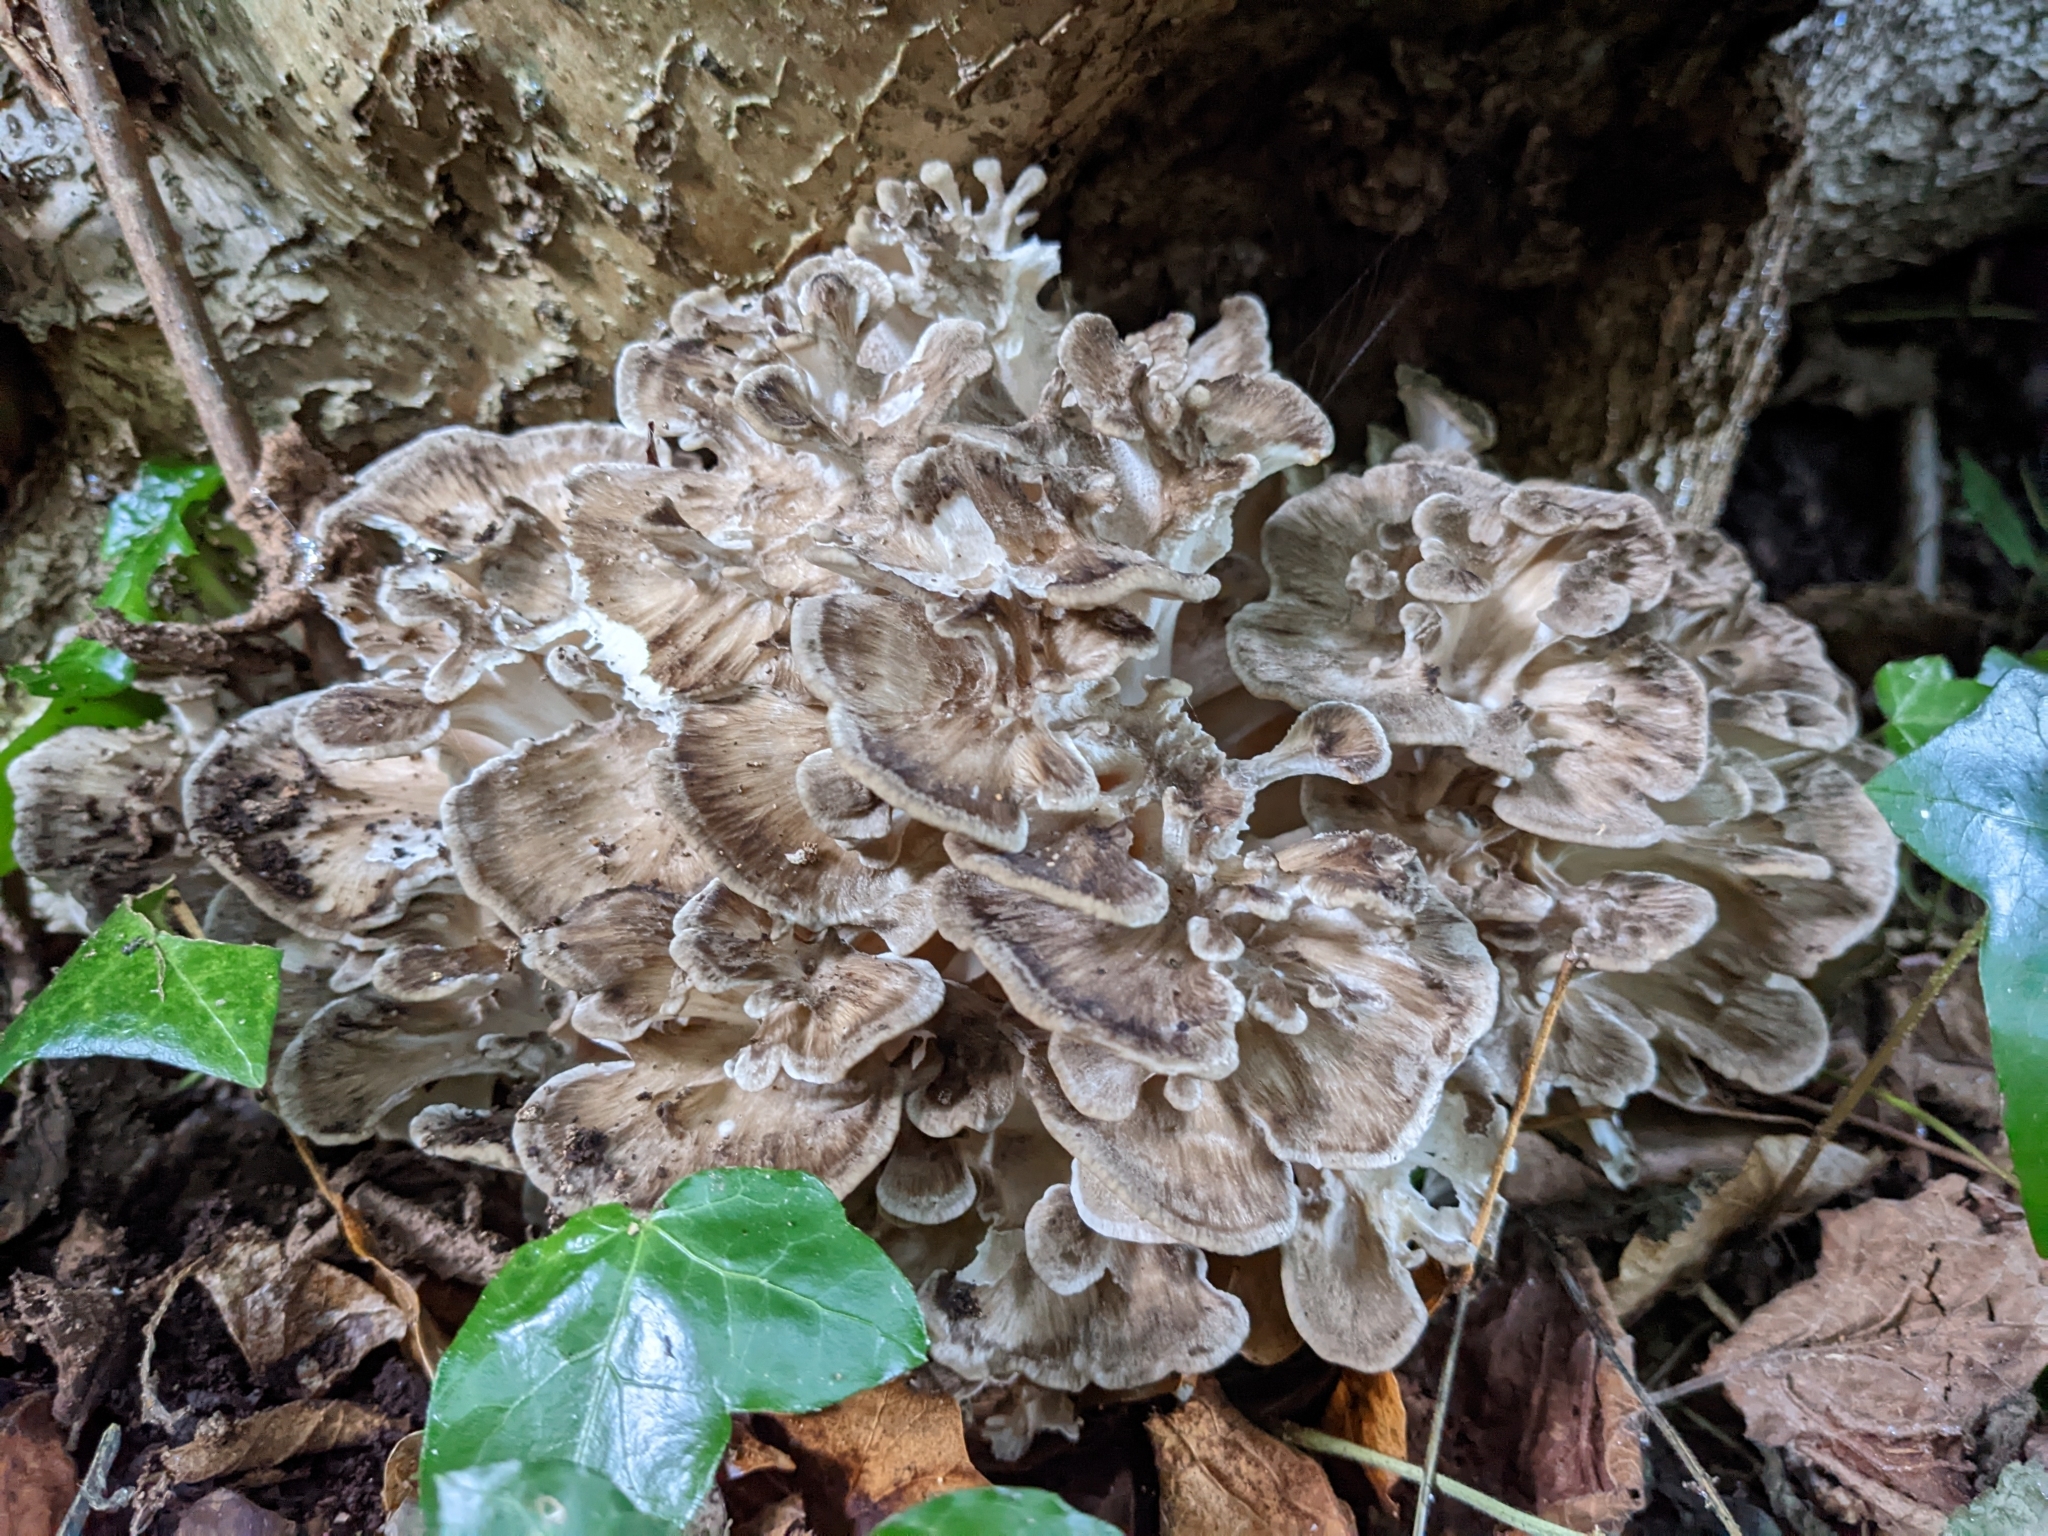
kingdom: Fungi
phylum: Basidiomycota
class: Agaricomycetes
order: Polyporales
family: Grifolaceae
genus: Grifola
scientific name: Grifola frondosa
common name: Hen of the woods
